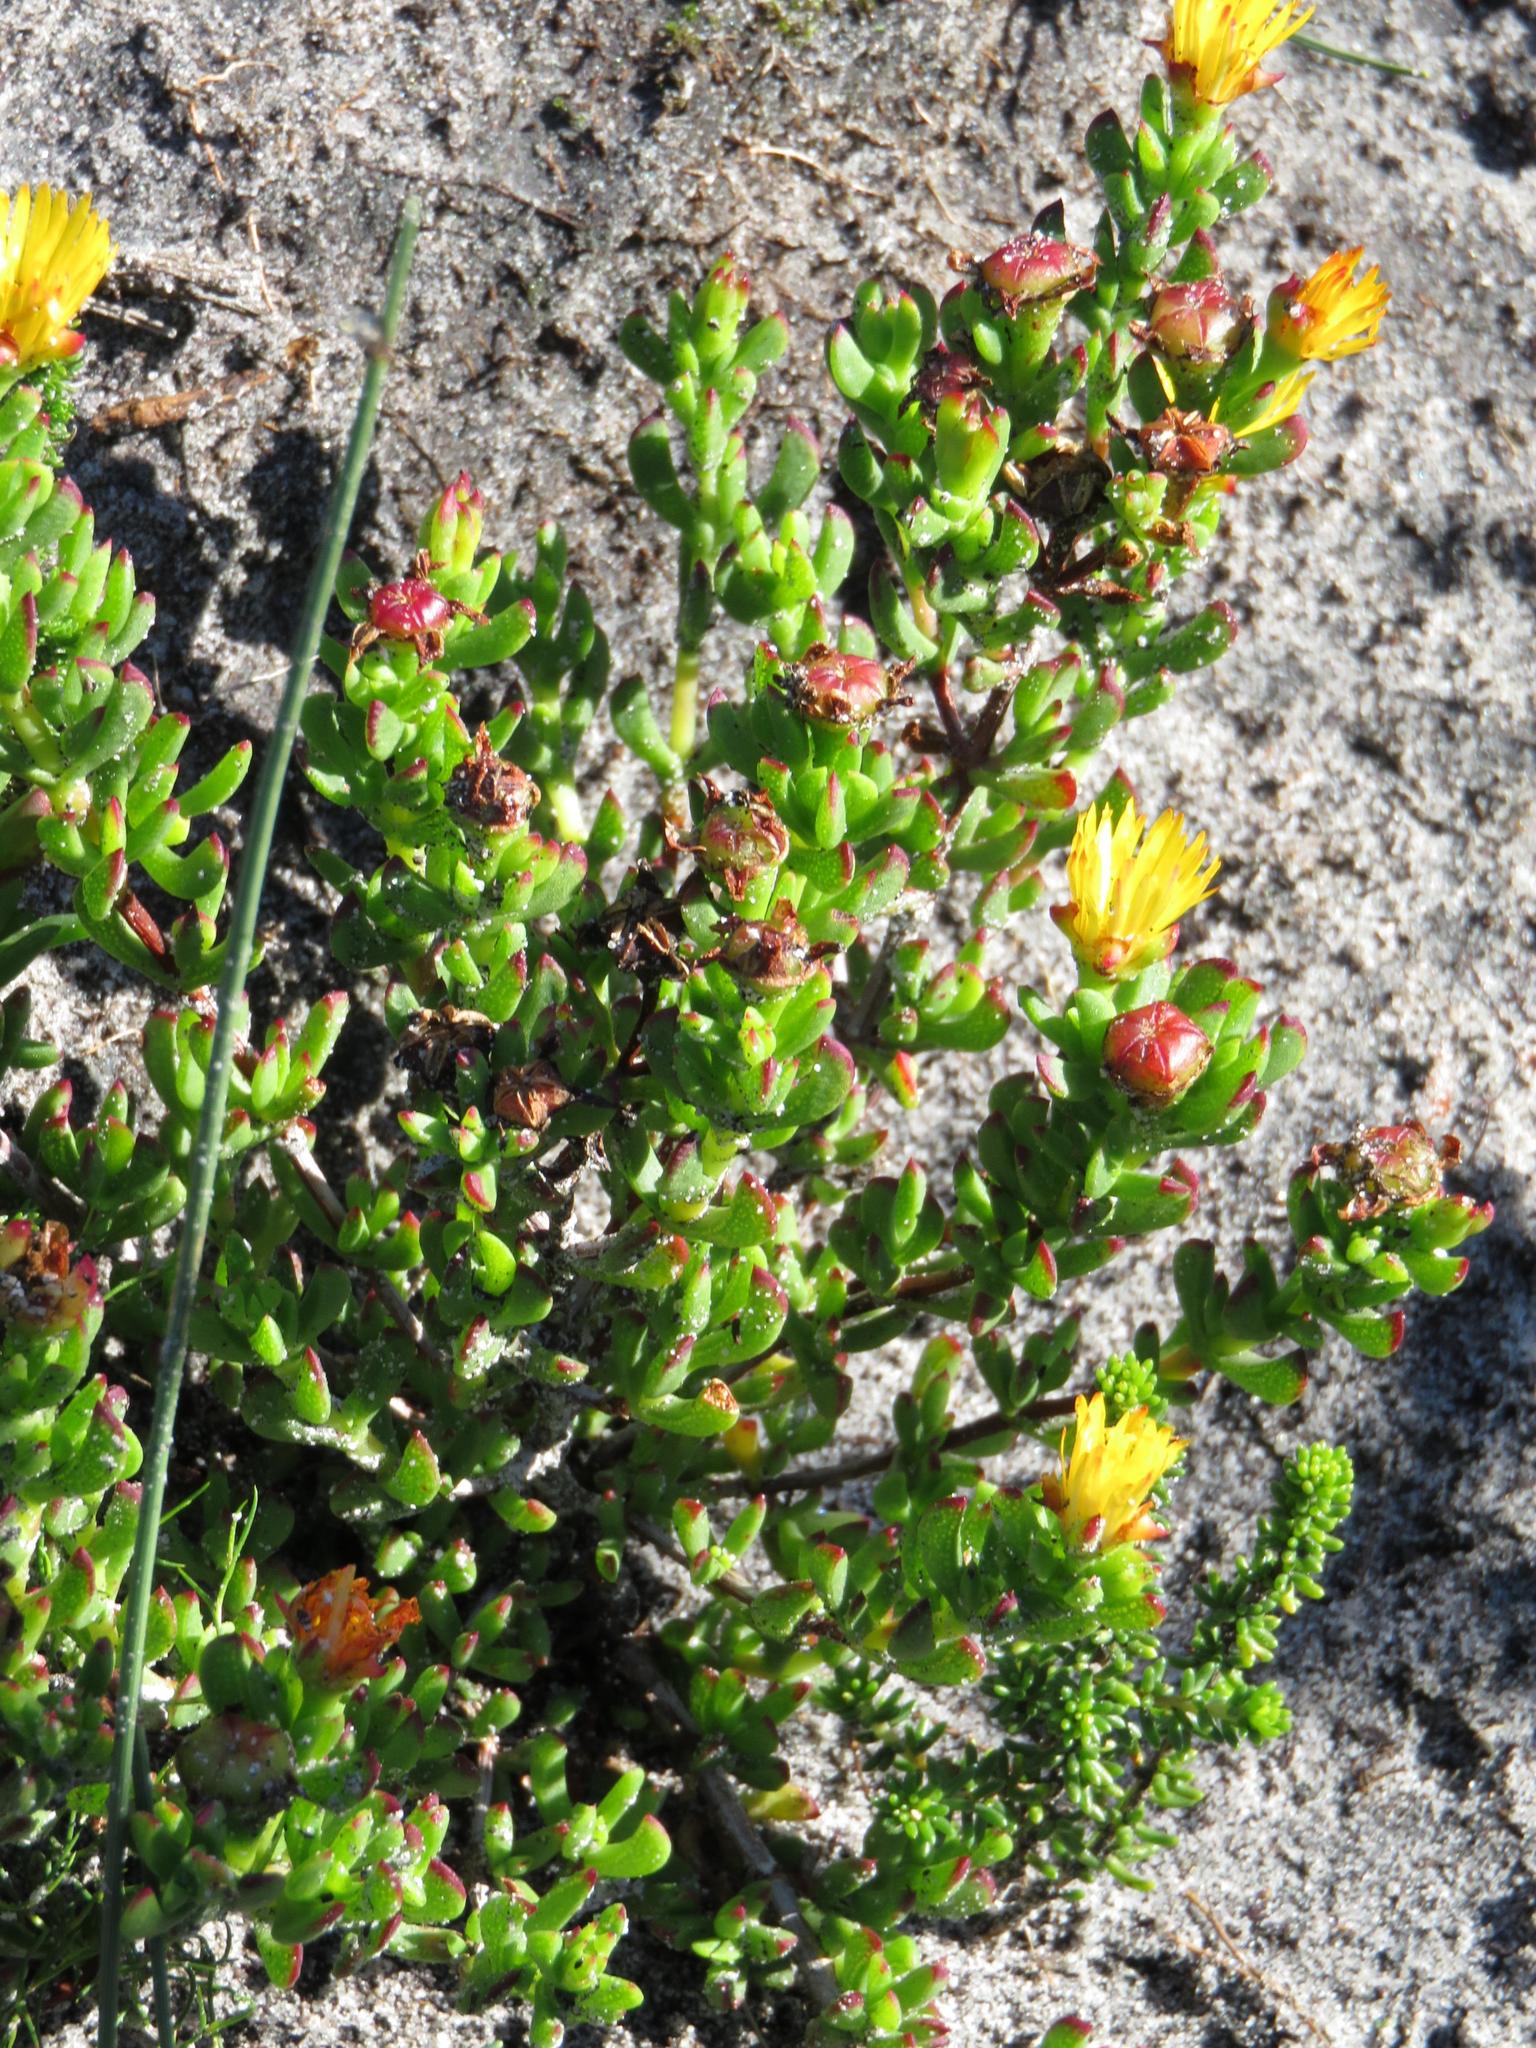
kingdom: Plantae
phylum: Tracheophyta
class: Magnoliopsida
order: Caryophyllales
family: Aizoaceae
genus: Lampranthus
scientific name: Lampranthus bicolor
